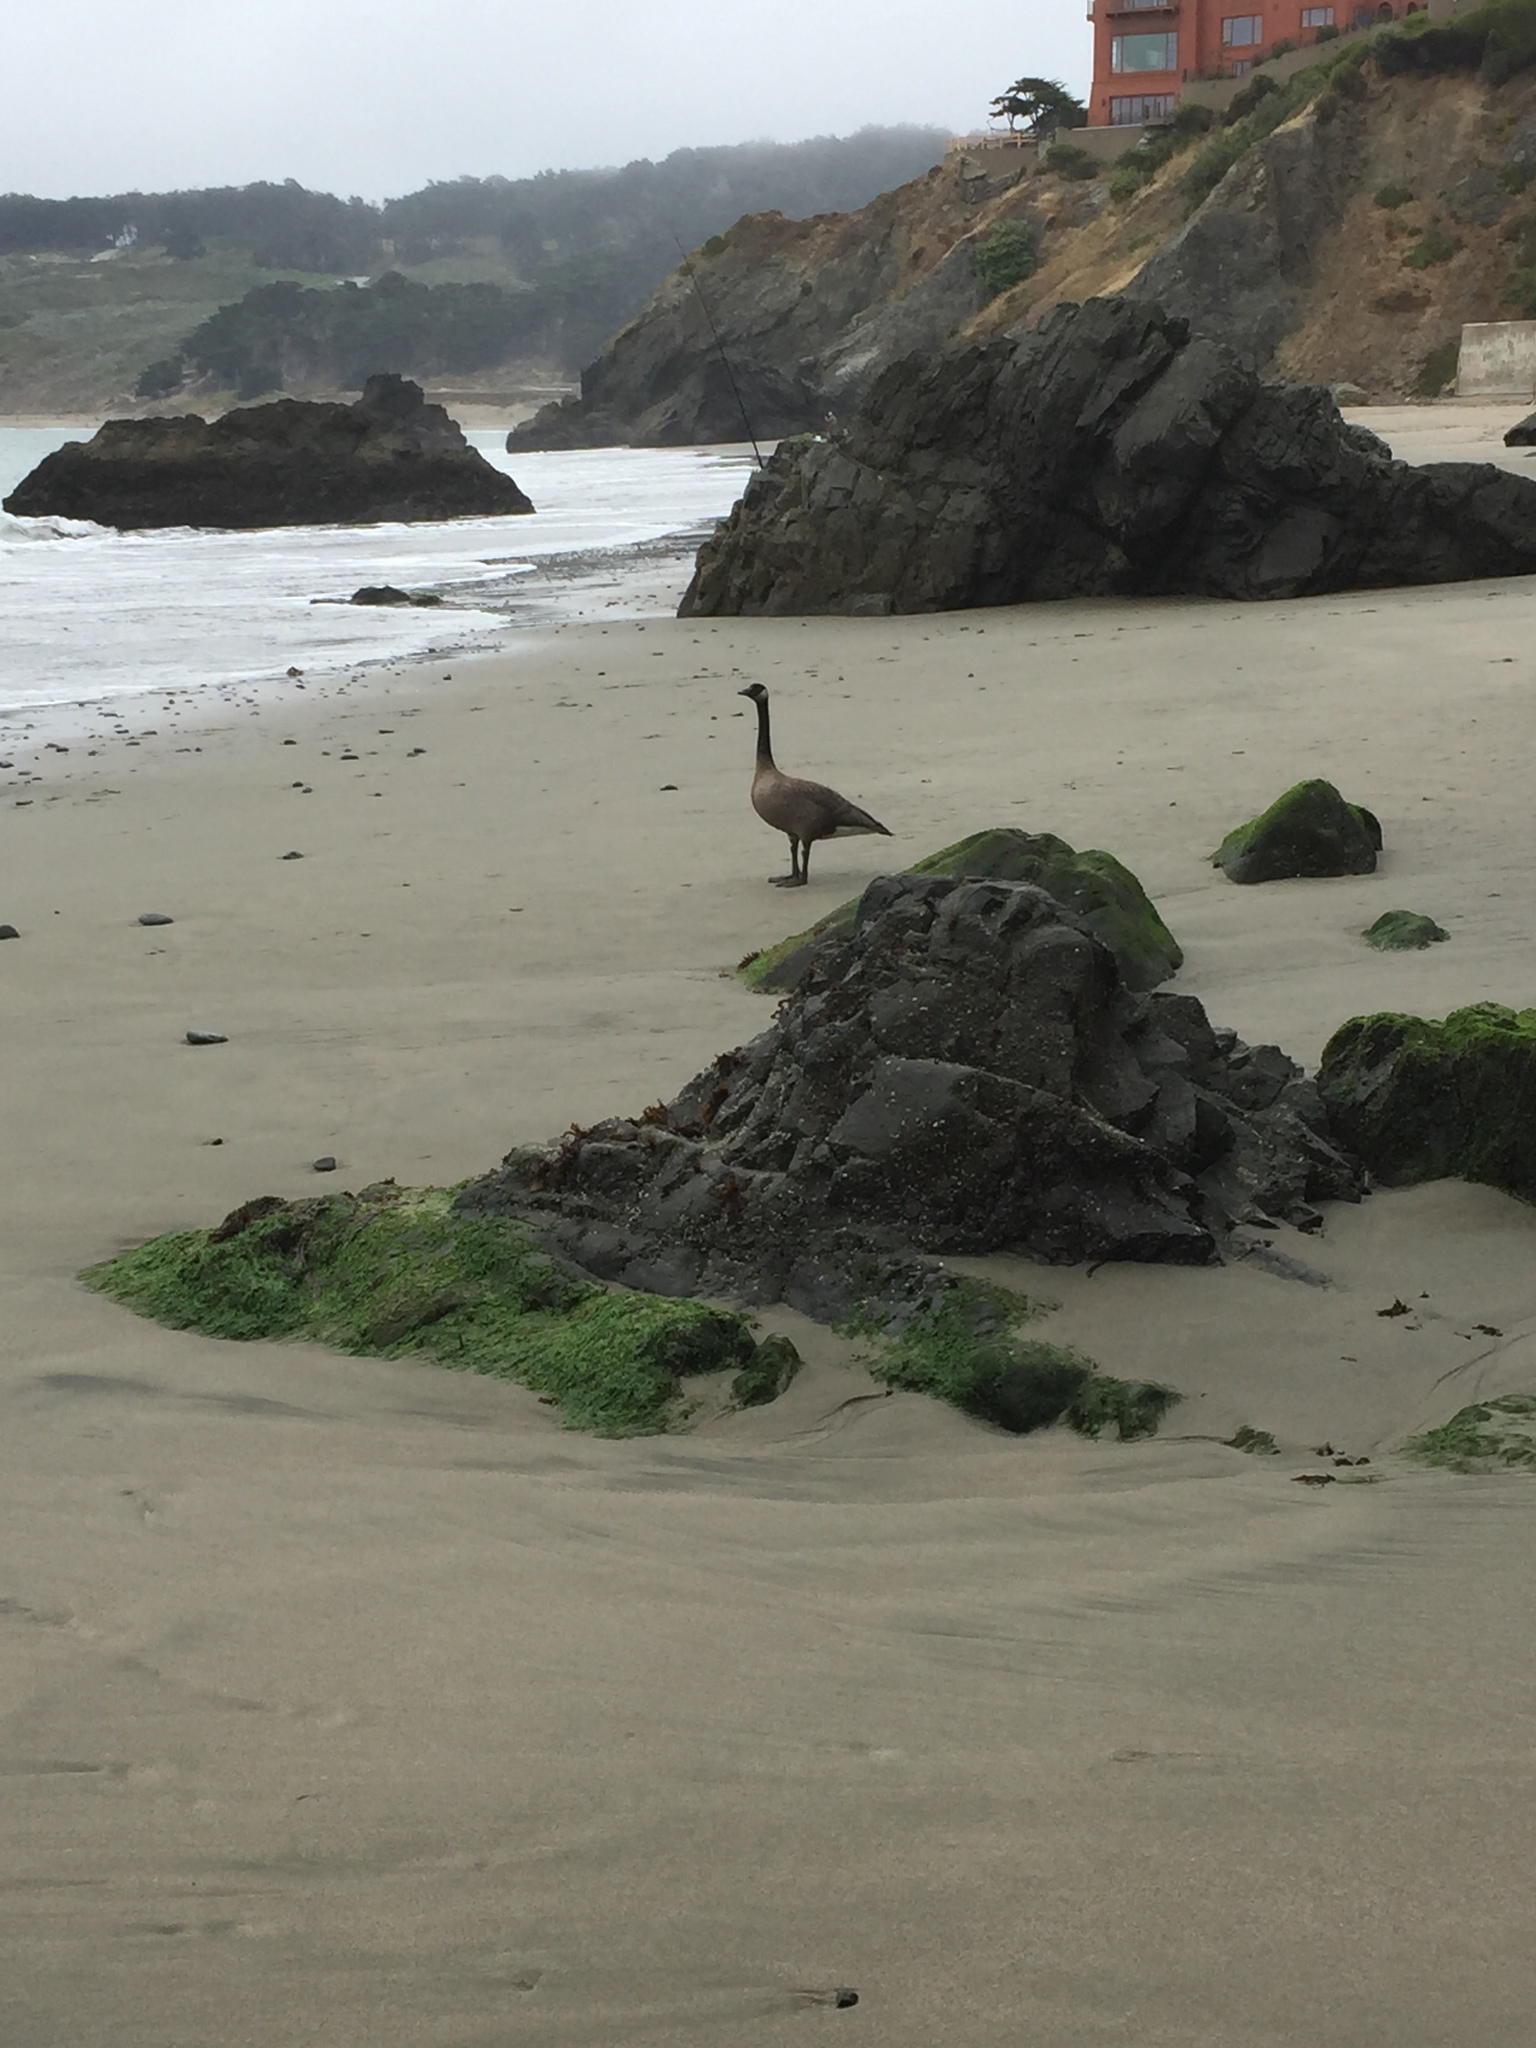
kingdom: Animalia
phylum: Chordata
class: Aves
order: Anseriformes
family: Anatidae
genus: Branta
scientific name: Branta canadensis
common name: Canada goose
